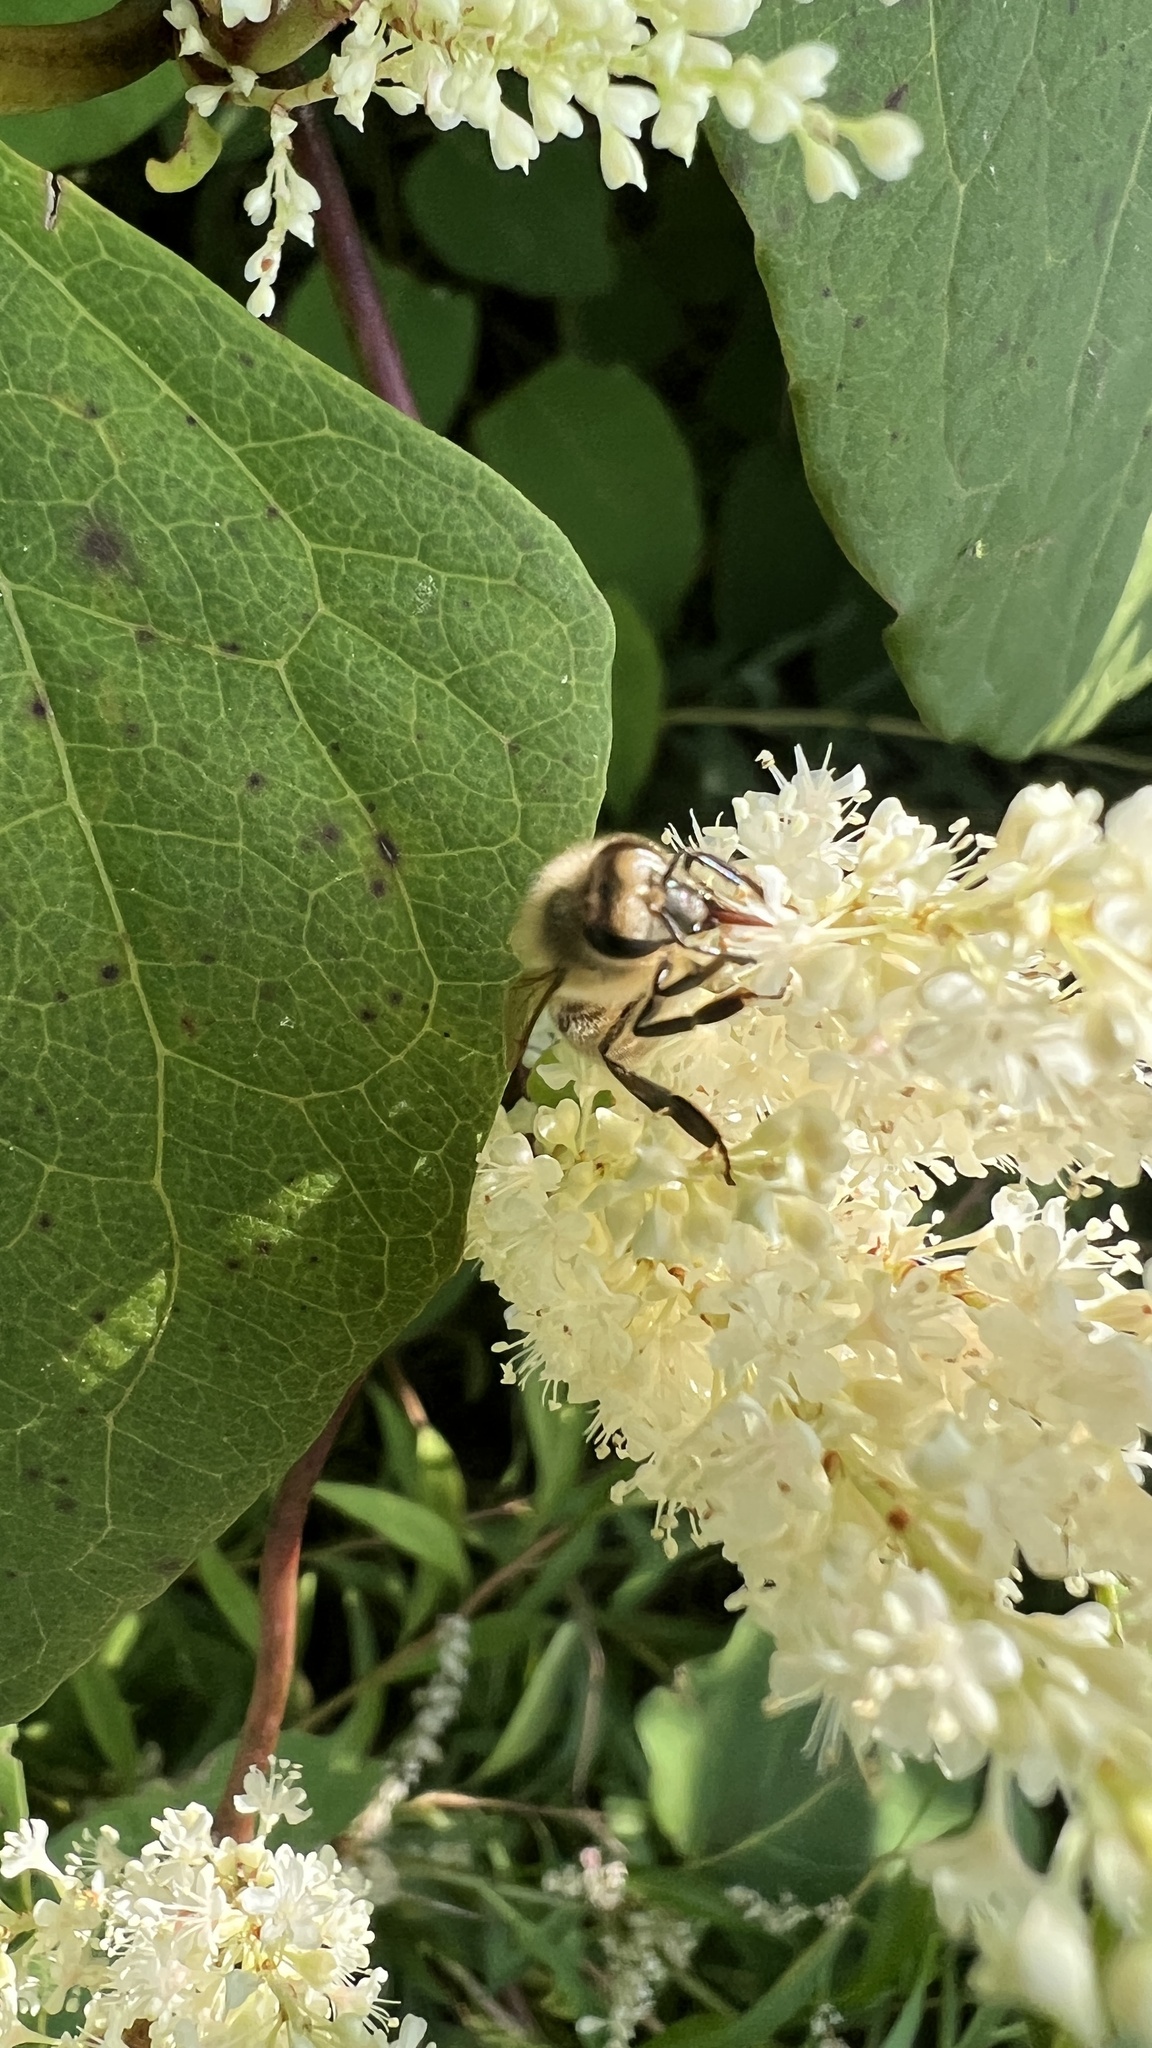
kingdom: Animalia
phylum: Arthropoda
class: Insecta
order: Hymenoptera
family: Apidae
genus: Apis
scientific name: Apis mellifera
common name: Honey bee
